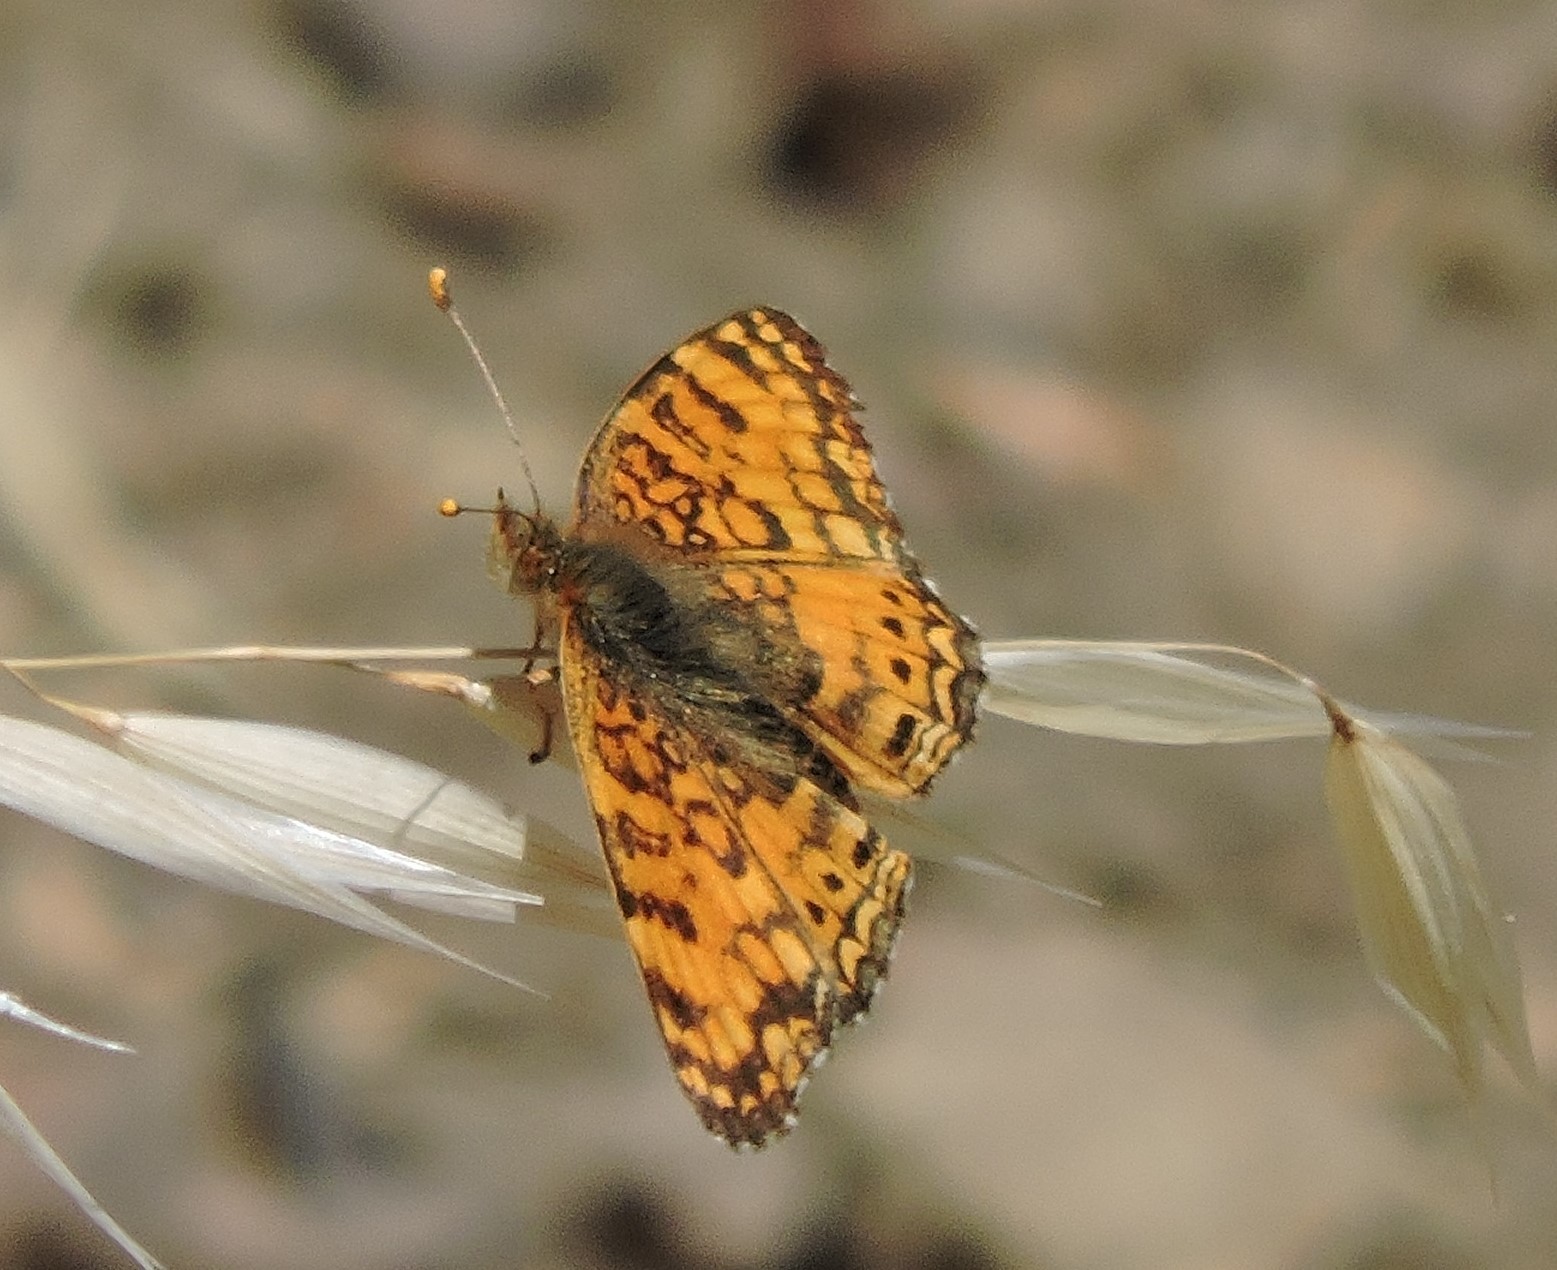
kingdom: Animalia
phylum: Arthropoda
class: Insecta
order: Lepidoptera
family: Nymphalidae
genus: Eresia
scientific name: Eresia aveyrona
